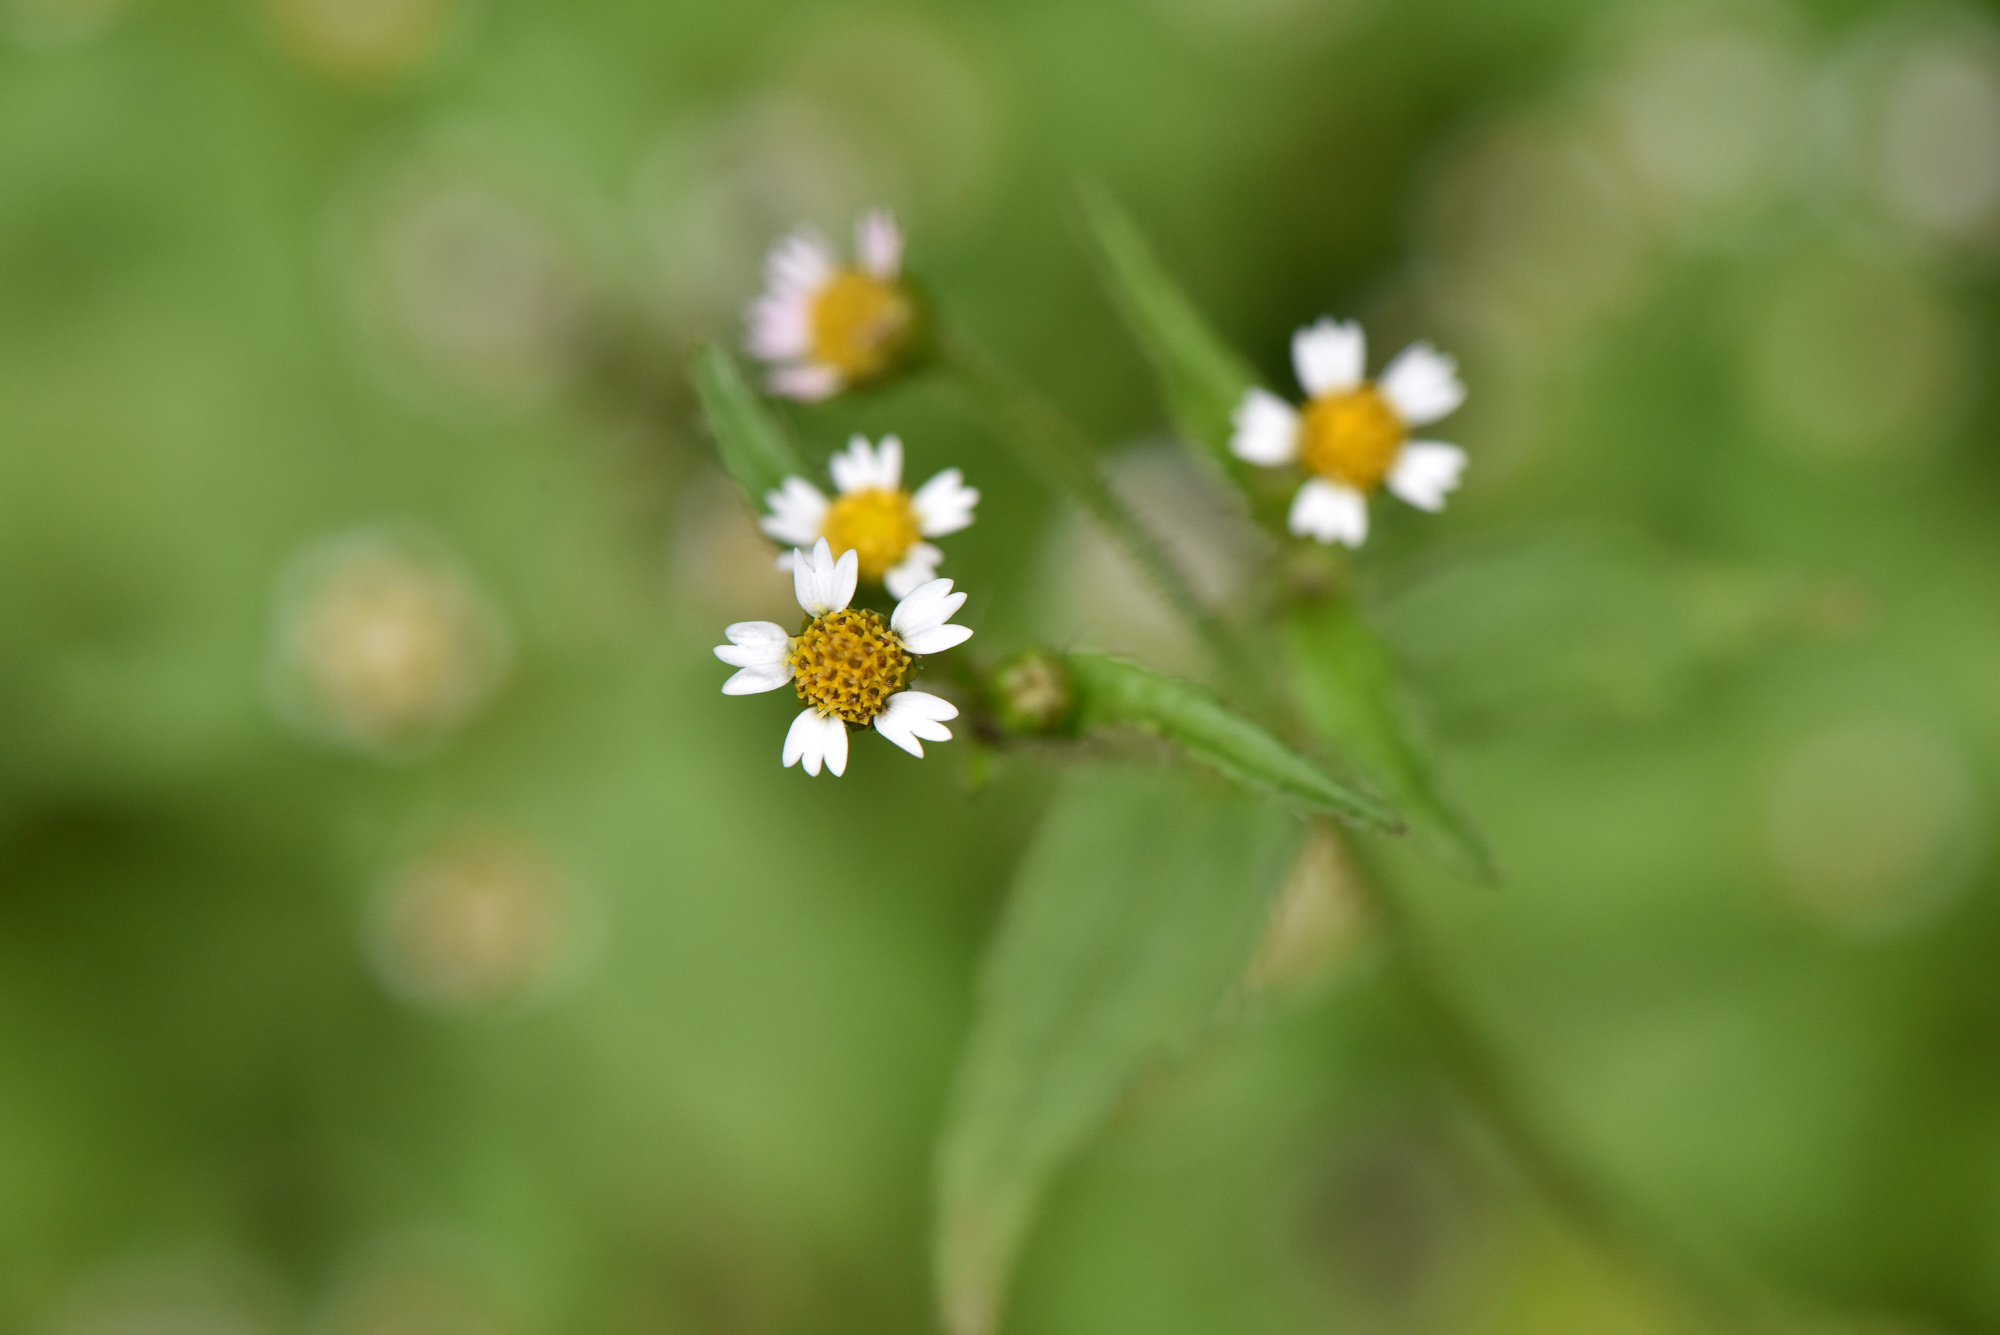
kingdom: Plantae
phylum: Tracheophyta
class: Magnoliopsida
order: Asterales
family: Asteraceae
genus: Galinsoga
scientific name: Galinsoga quadriradiata
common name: Shaggy soldier
